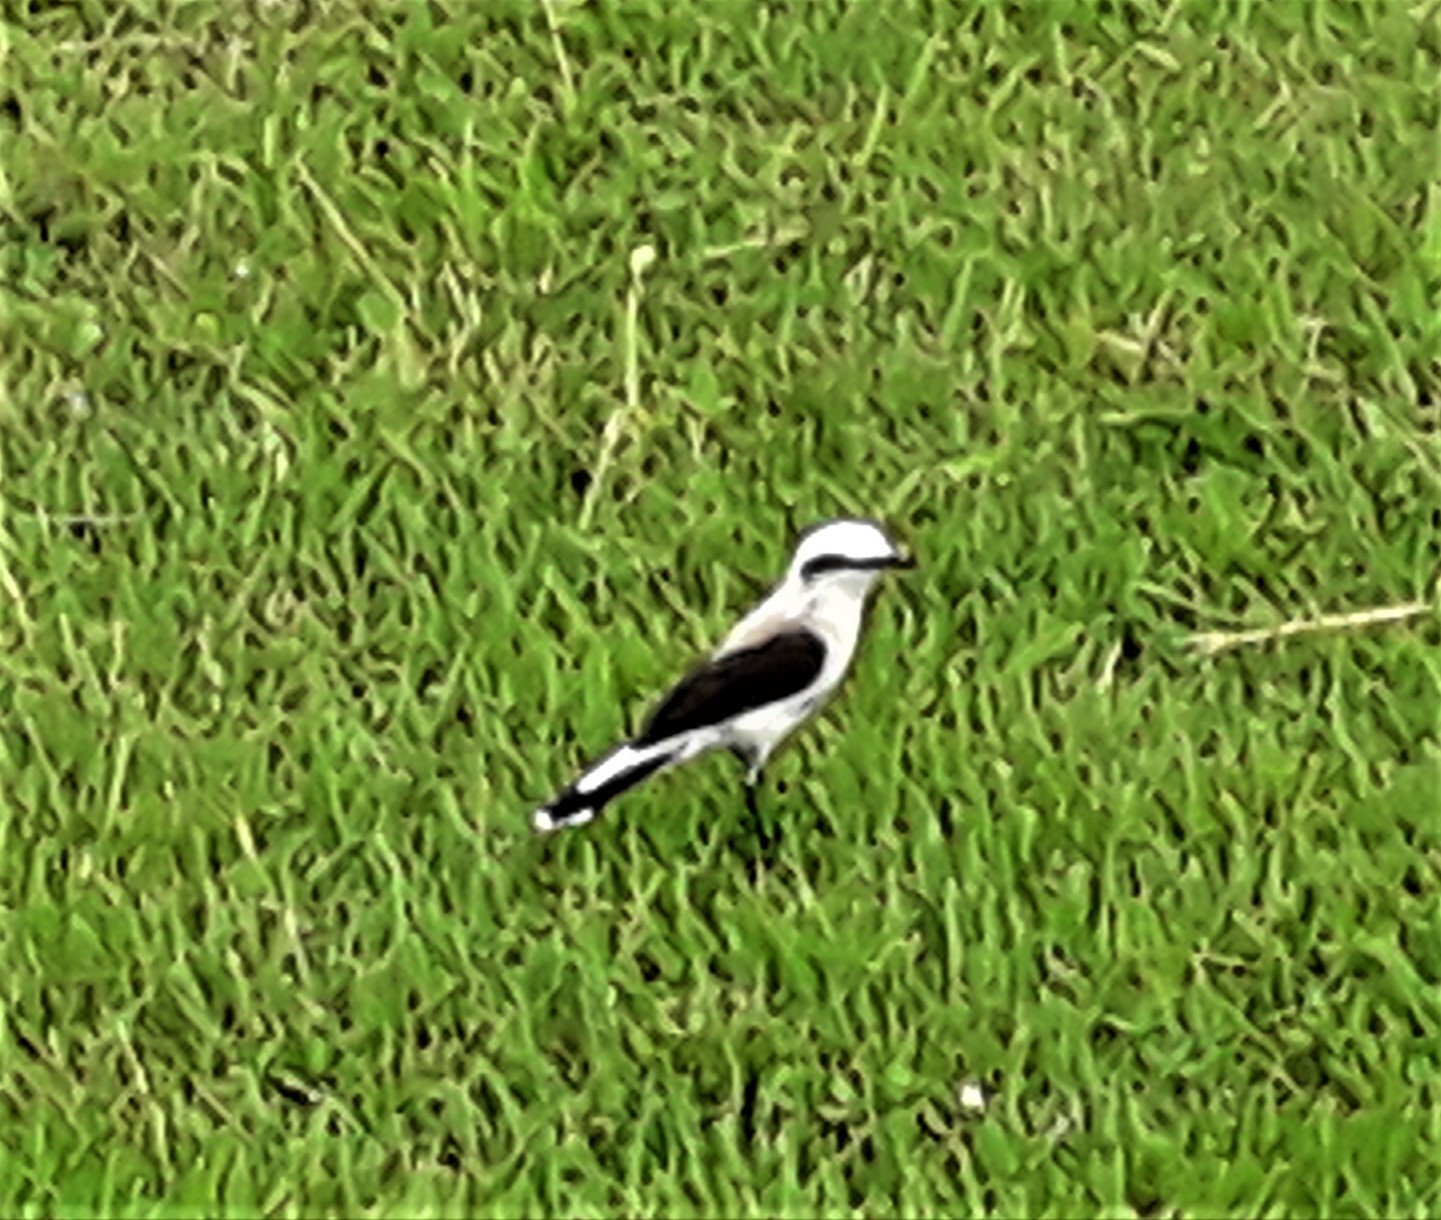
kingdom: Animalia
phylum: Chordata
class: Aves
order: Passeriformes
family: Tyrannidae
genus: Fluvicola
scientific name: Fluvicola nengeta
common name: Masked water tyrant
